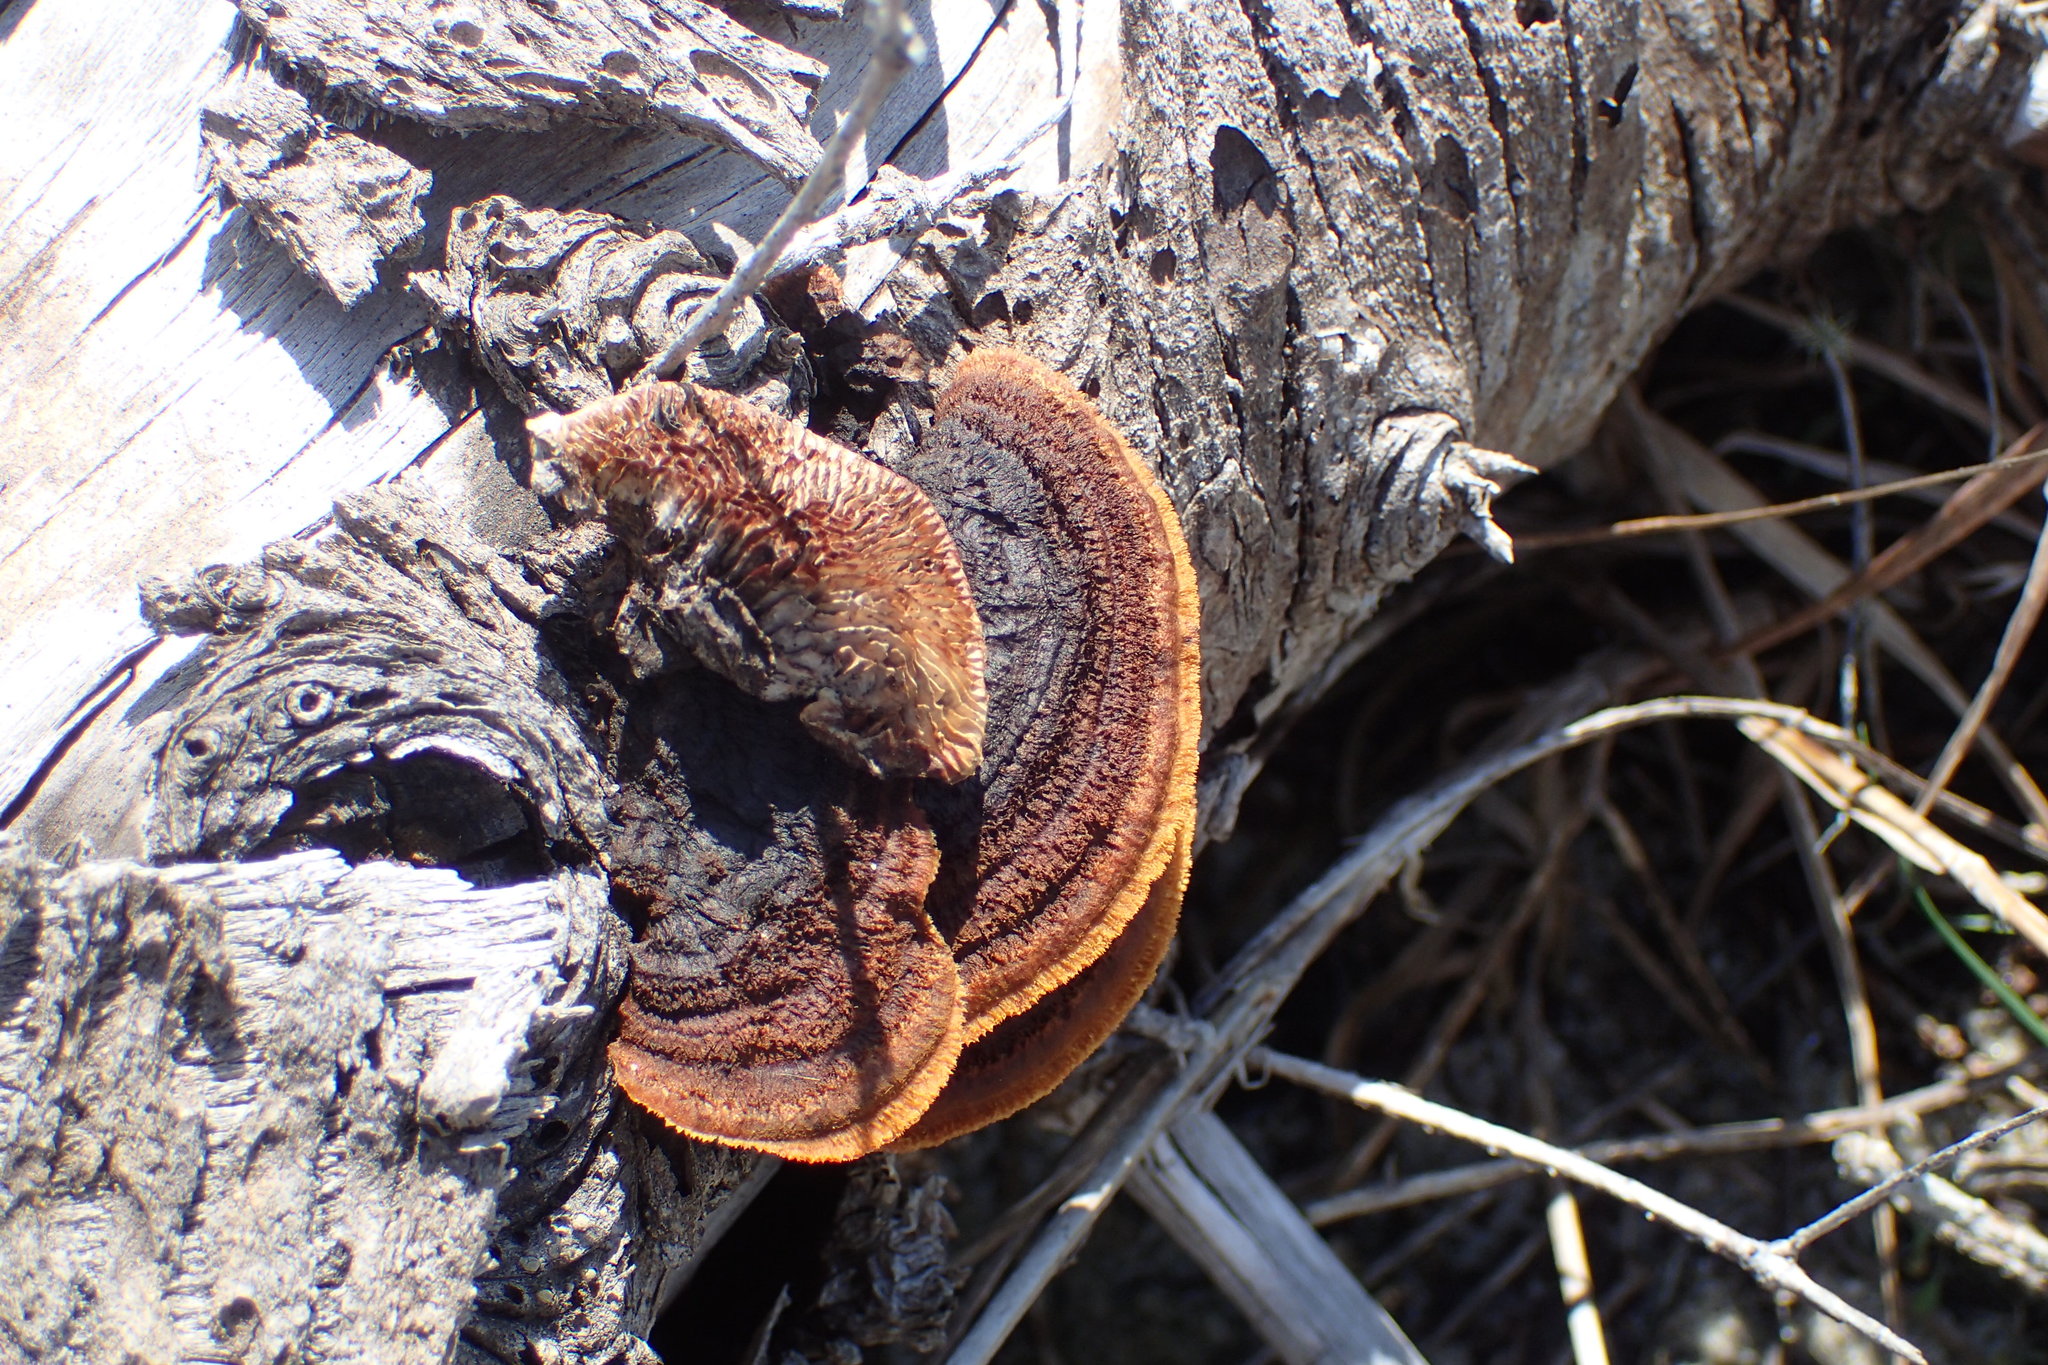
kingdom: Fungi
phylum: Basidiomycota
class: Agaricomycetes
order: Gloeophyllales
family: Gloeophyllaceae
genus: Gloeophyllum
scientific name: Gloeophyllum sepiarium
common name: Conifer mazegill
